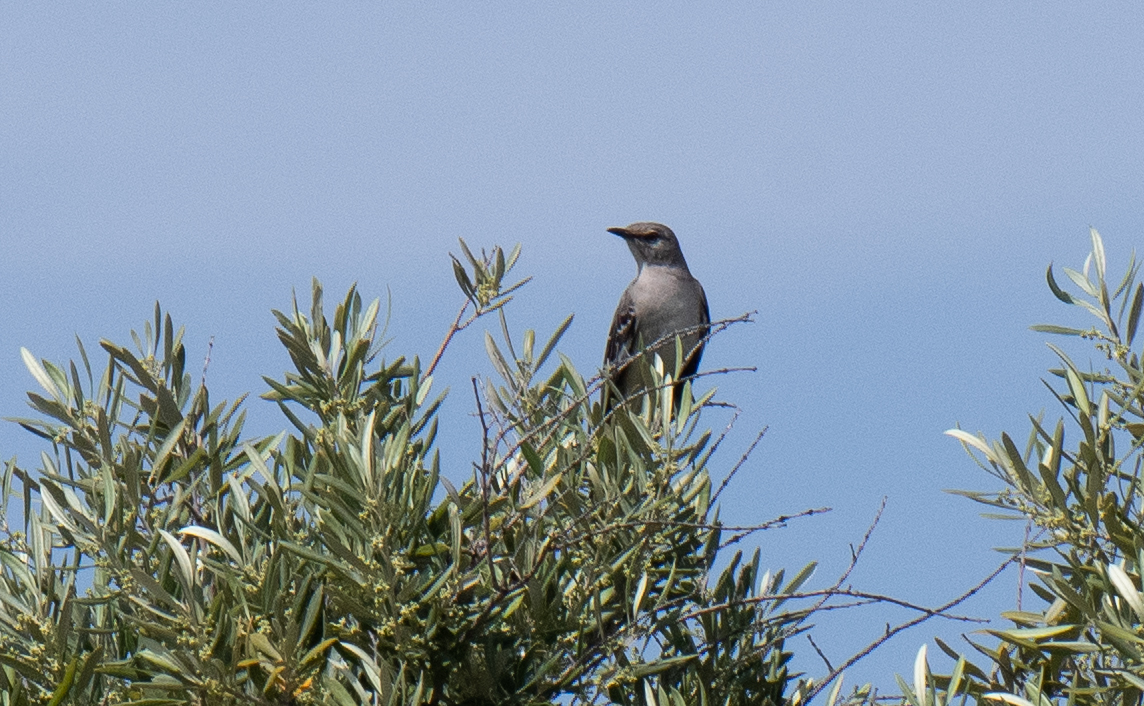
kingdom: Animalia
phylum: Chordata
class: Aves
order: Passeriformes
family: Mimidae
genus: Mimus
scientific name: Mimus polyglottos
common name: Northern mockingbird
